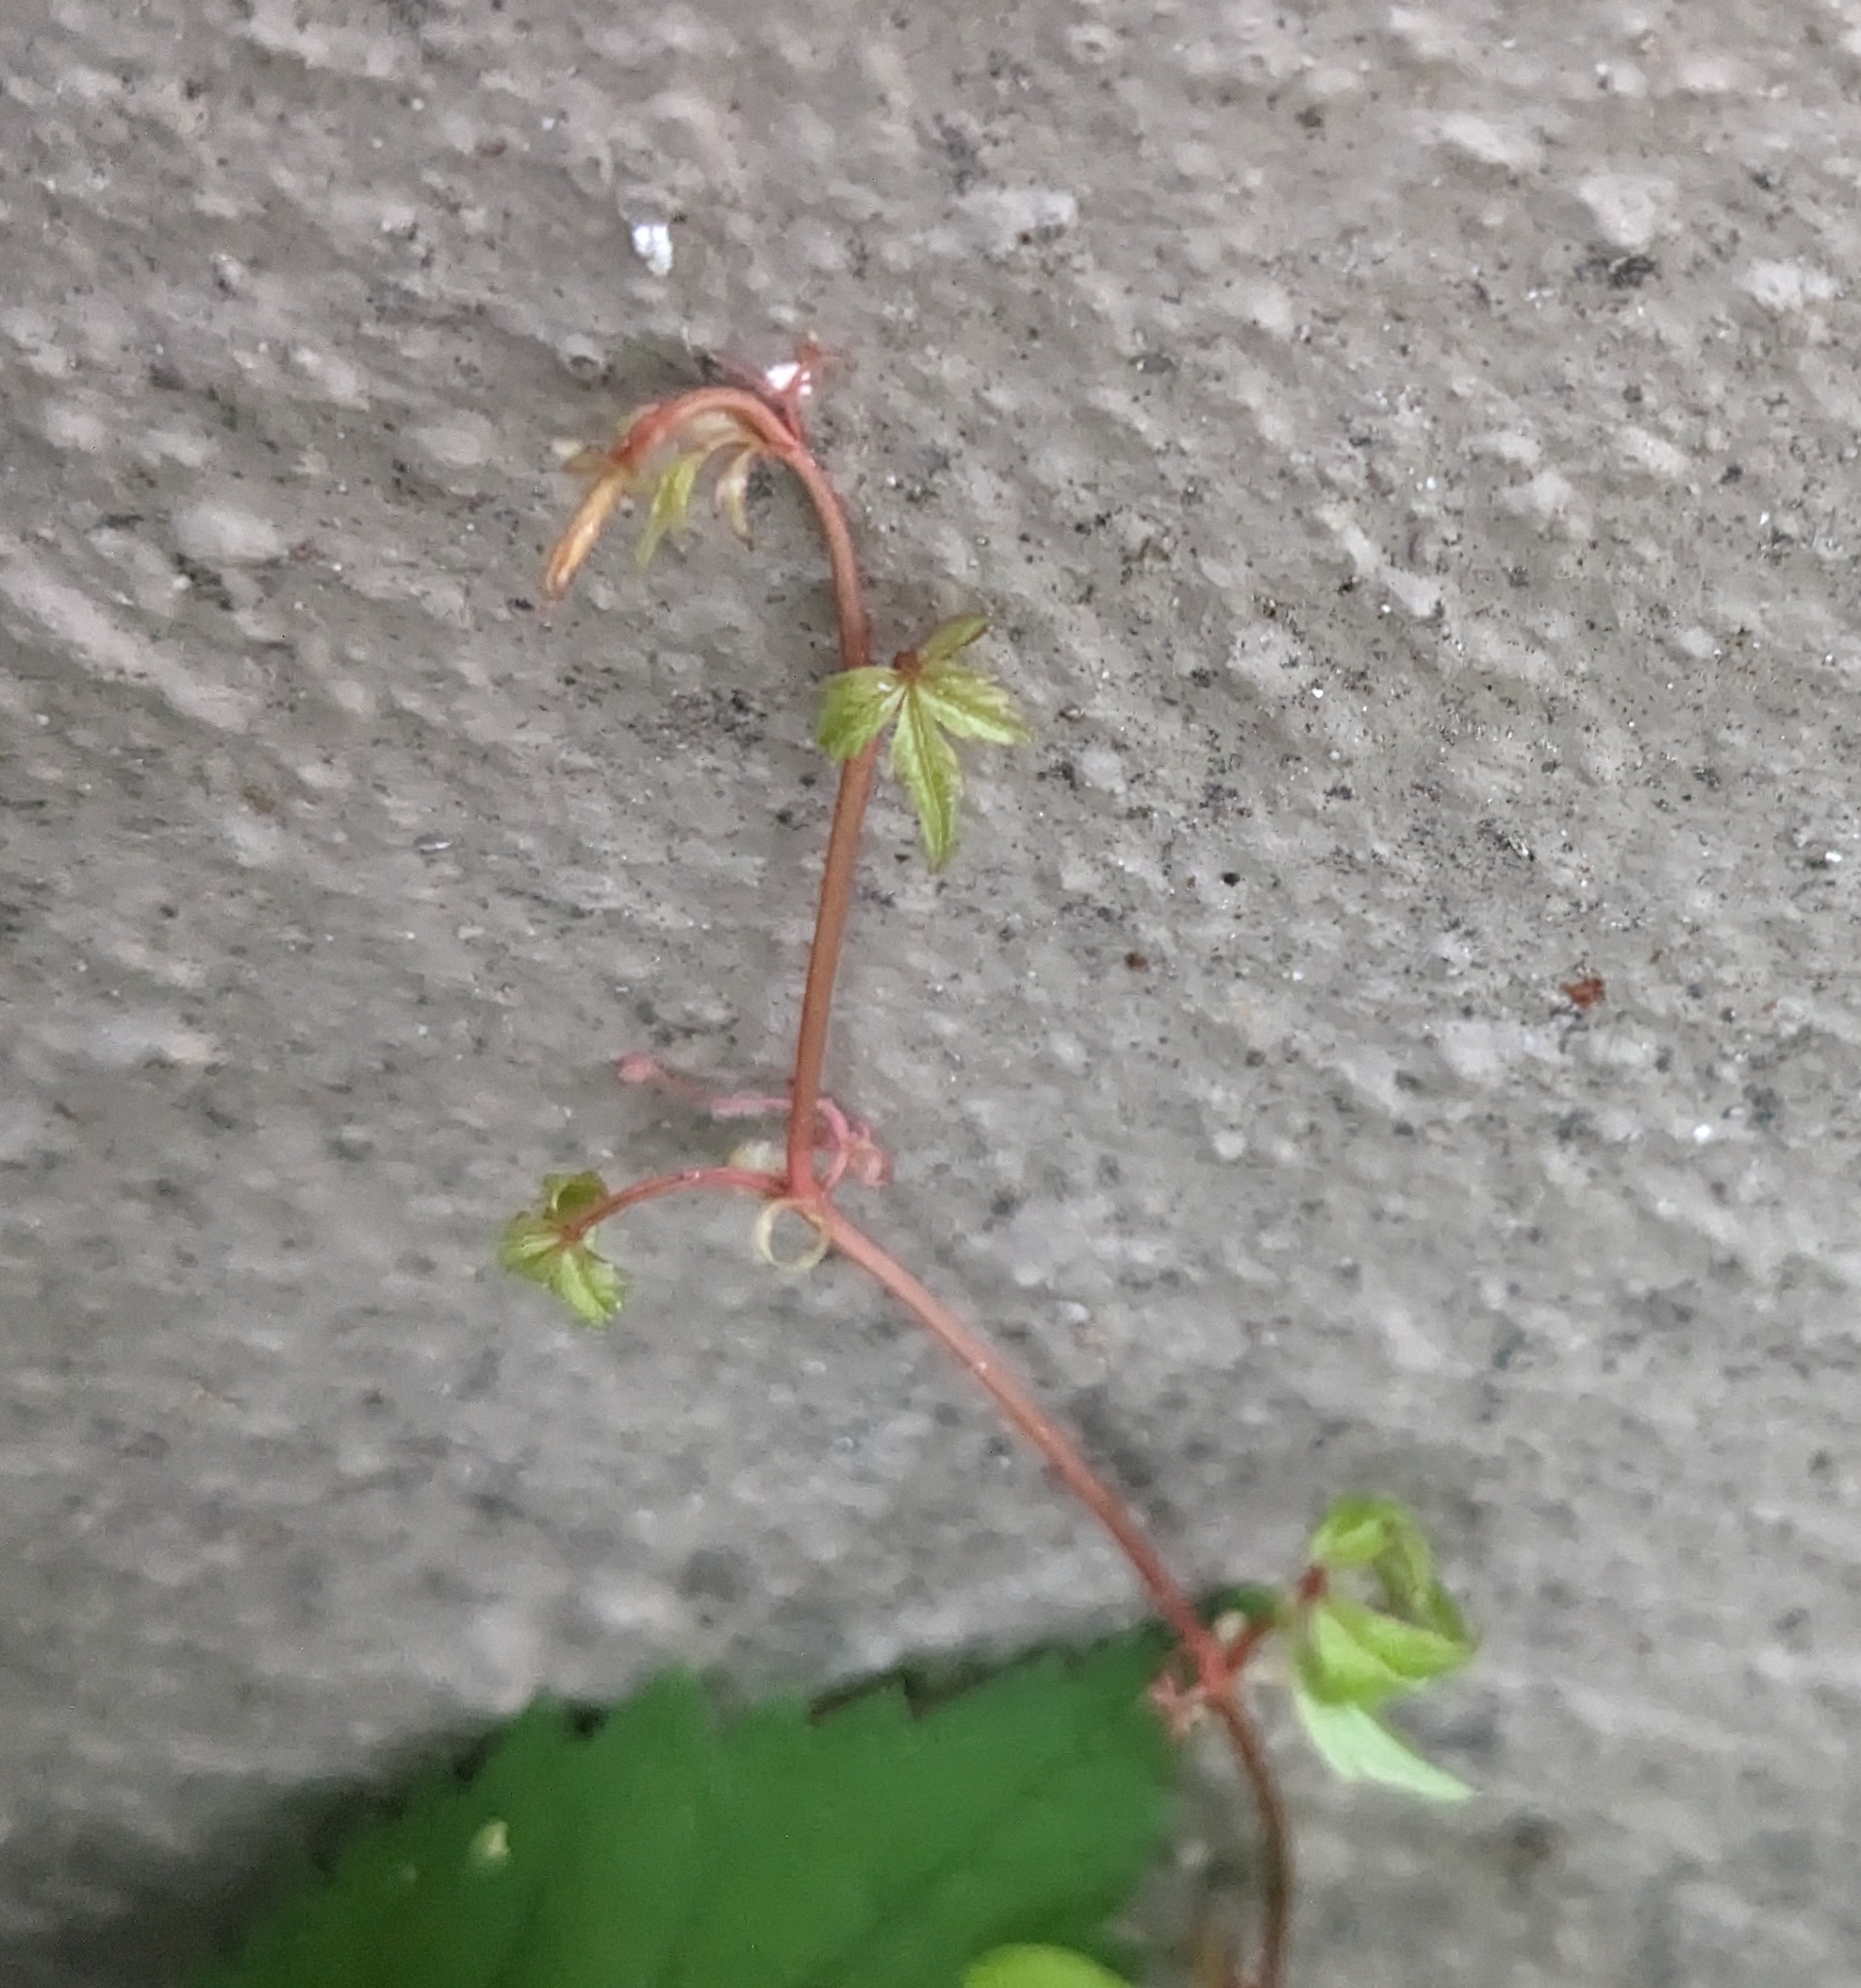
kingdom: Plantae
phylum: Tracheophyta
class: Magnoliopsida
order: Vitales
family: Vitaceae
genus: Parthenocissus
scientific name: Parthenocissus quinquefolia
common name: Virginia-creeper
